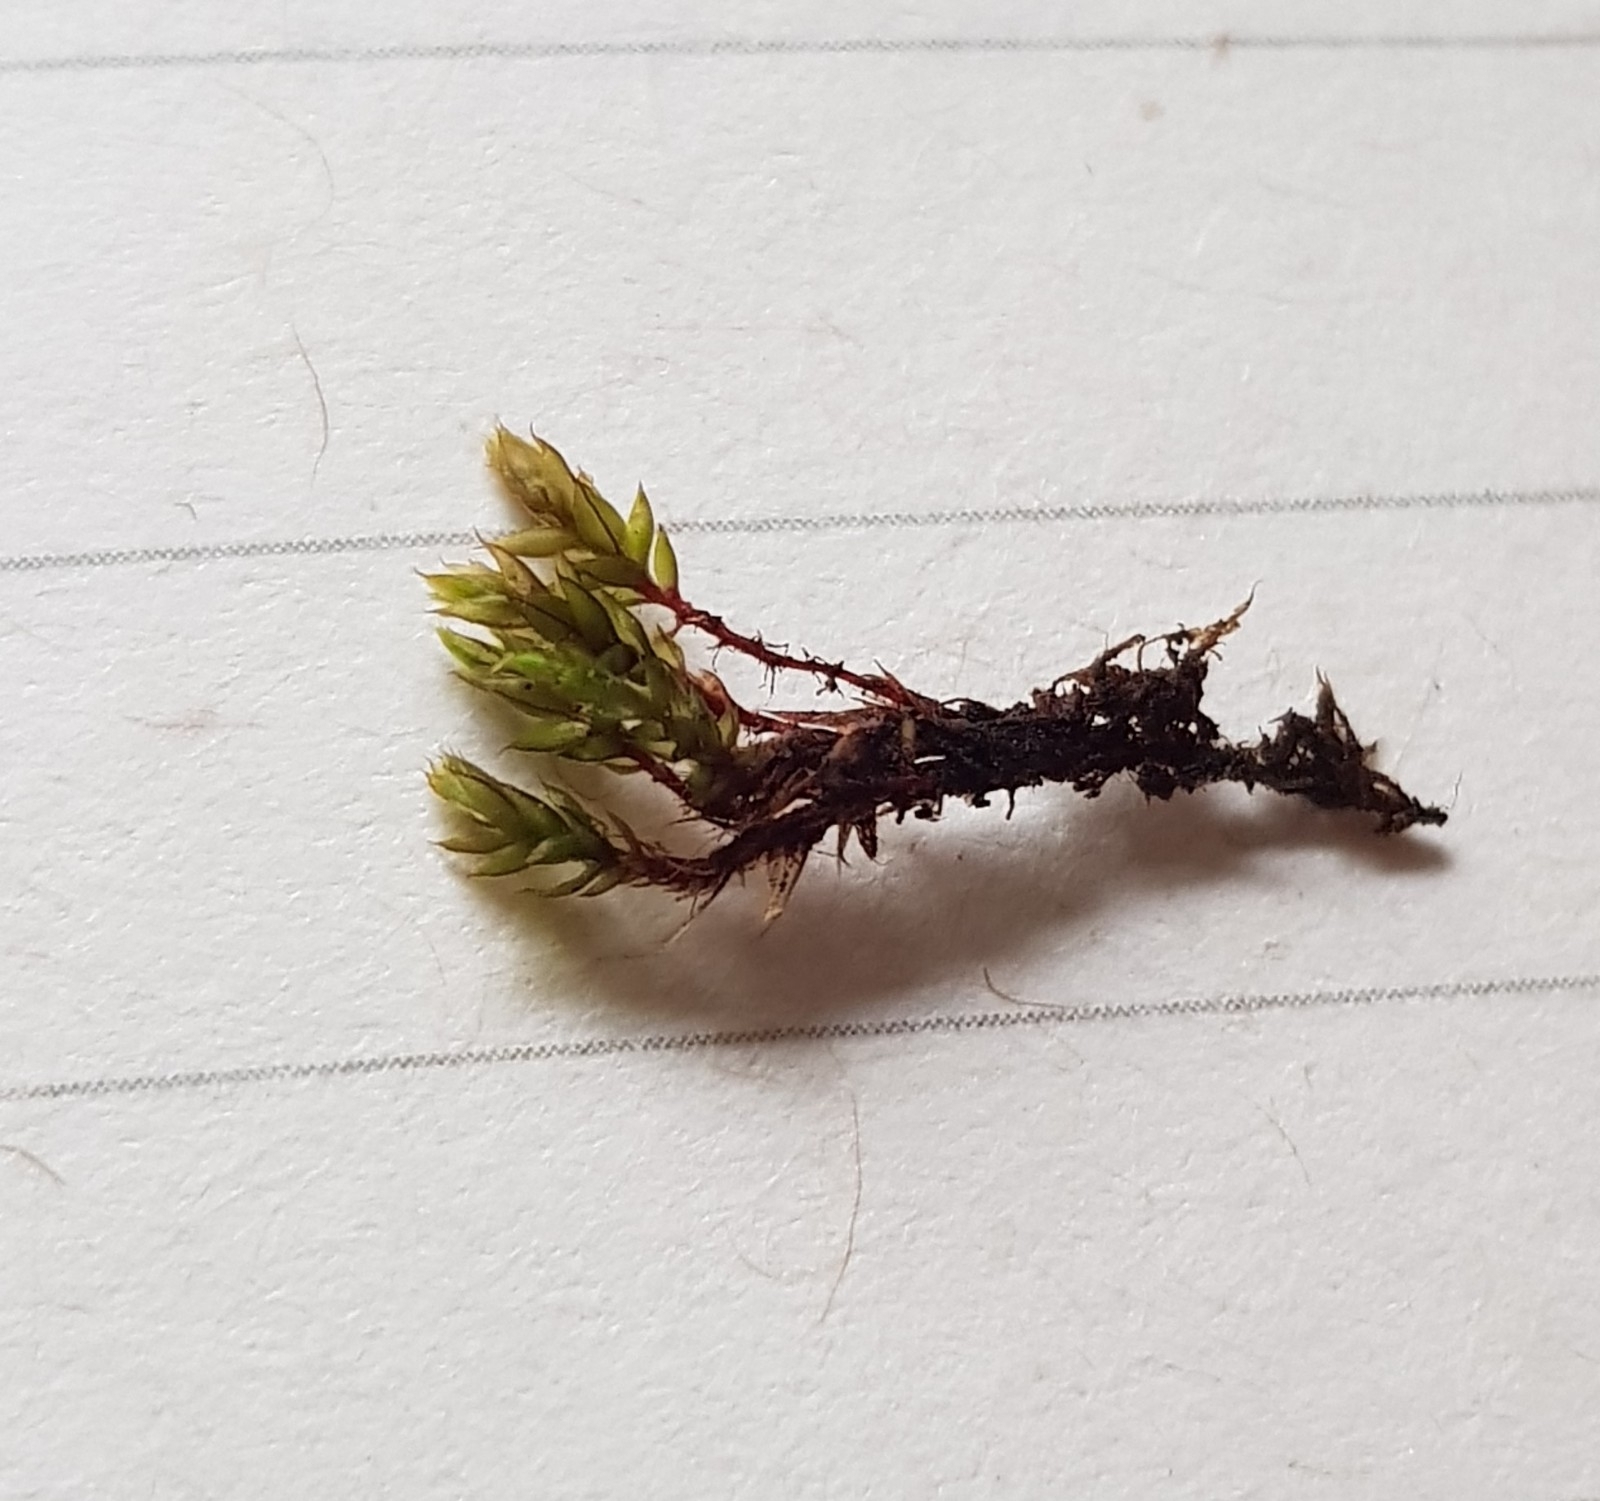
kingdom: Plantae
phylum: Bryophyta
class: Bryopsida
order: Bryales
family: Bryaceae
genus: Ptychostomum
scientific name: Ptychostomum pseudotriquetrum
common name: Long-leaved thread moss
